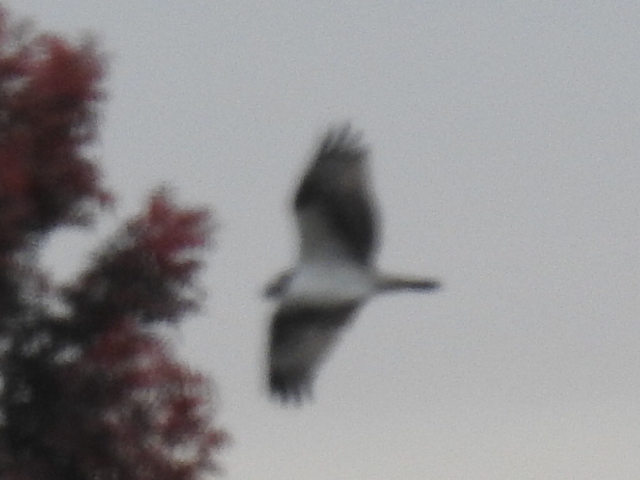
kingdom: Animalia
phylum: Chordata
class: Aves
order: Accipitriformes
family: Pandionidae
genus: Pandion
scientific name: Pandion haliaetus
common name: Osprey
